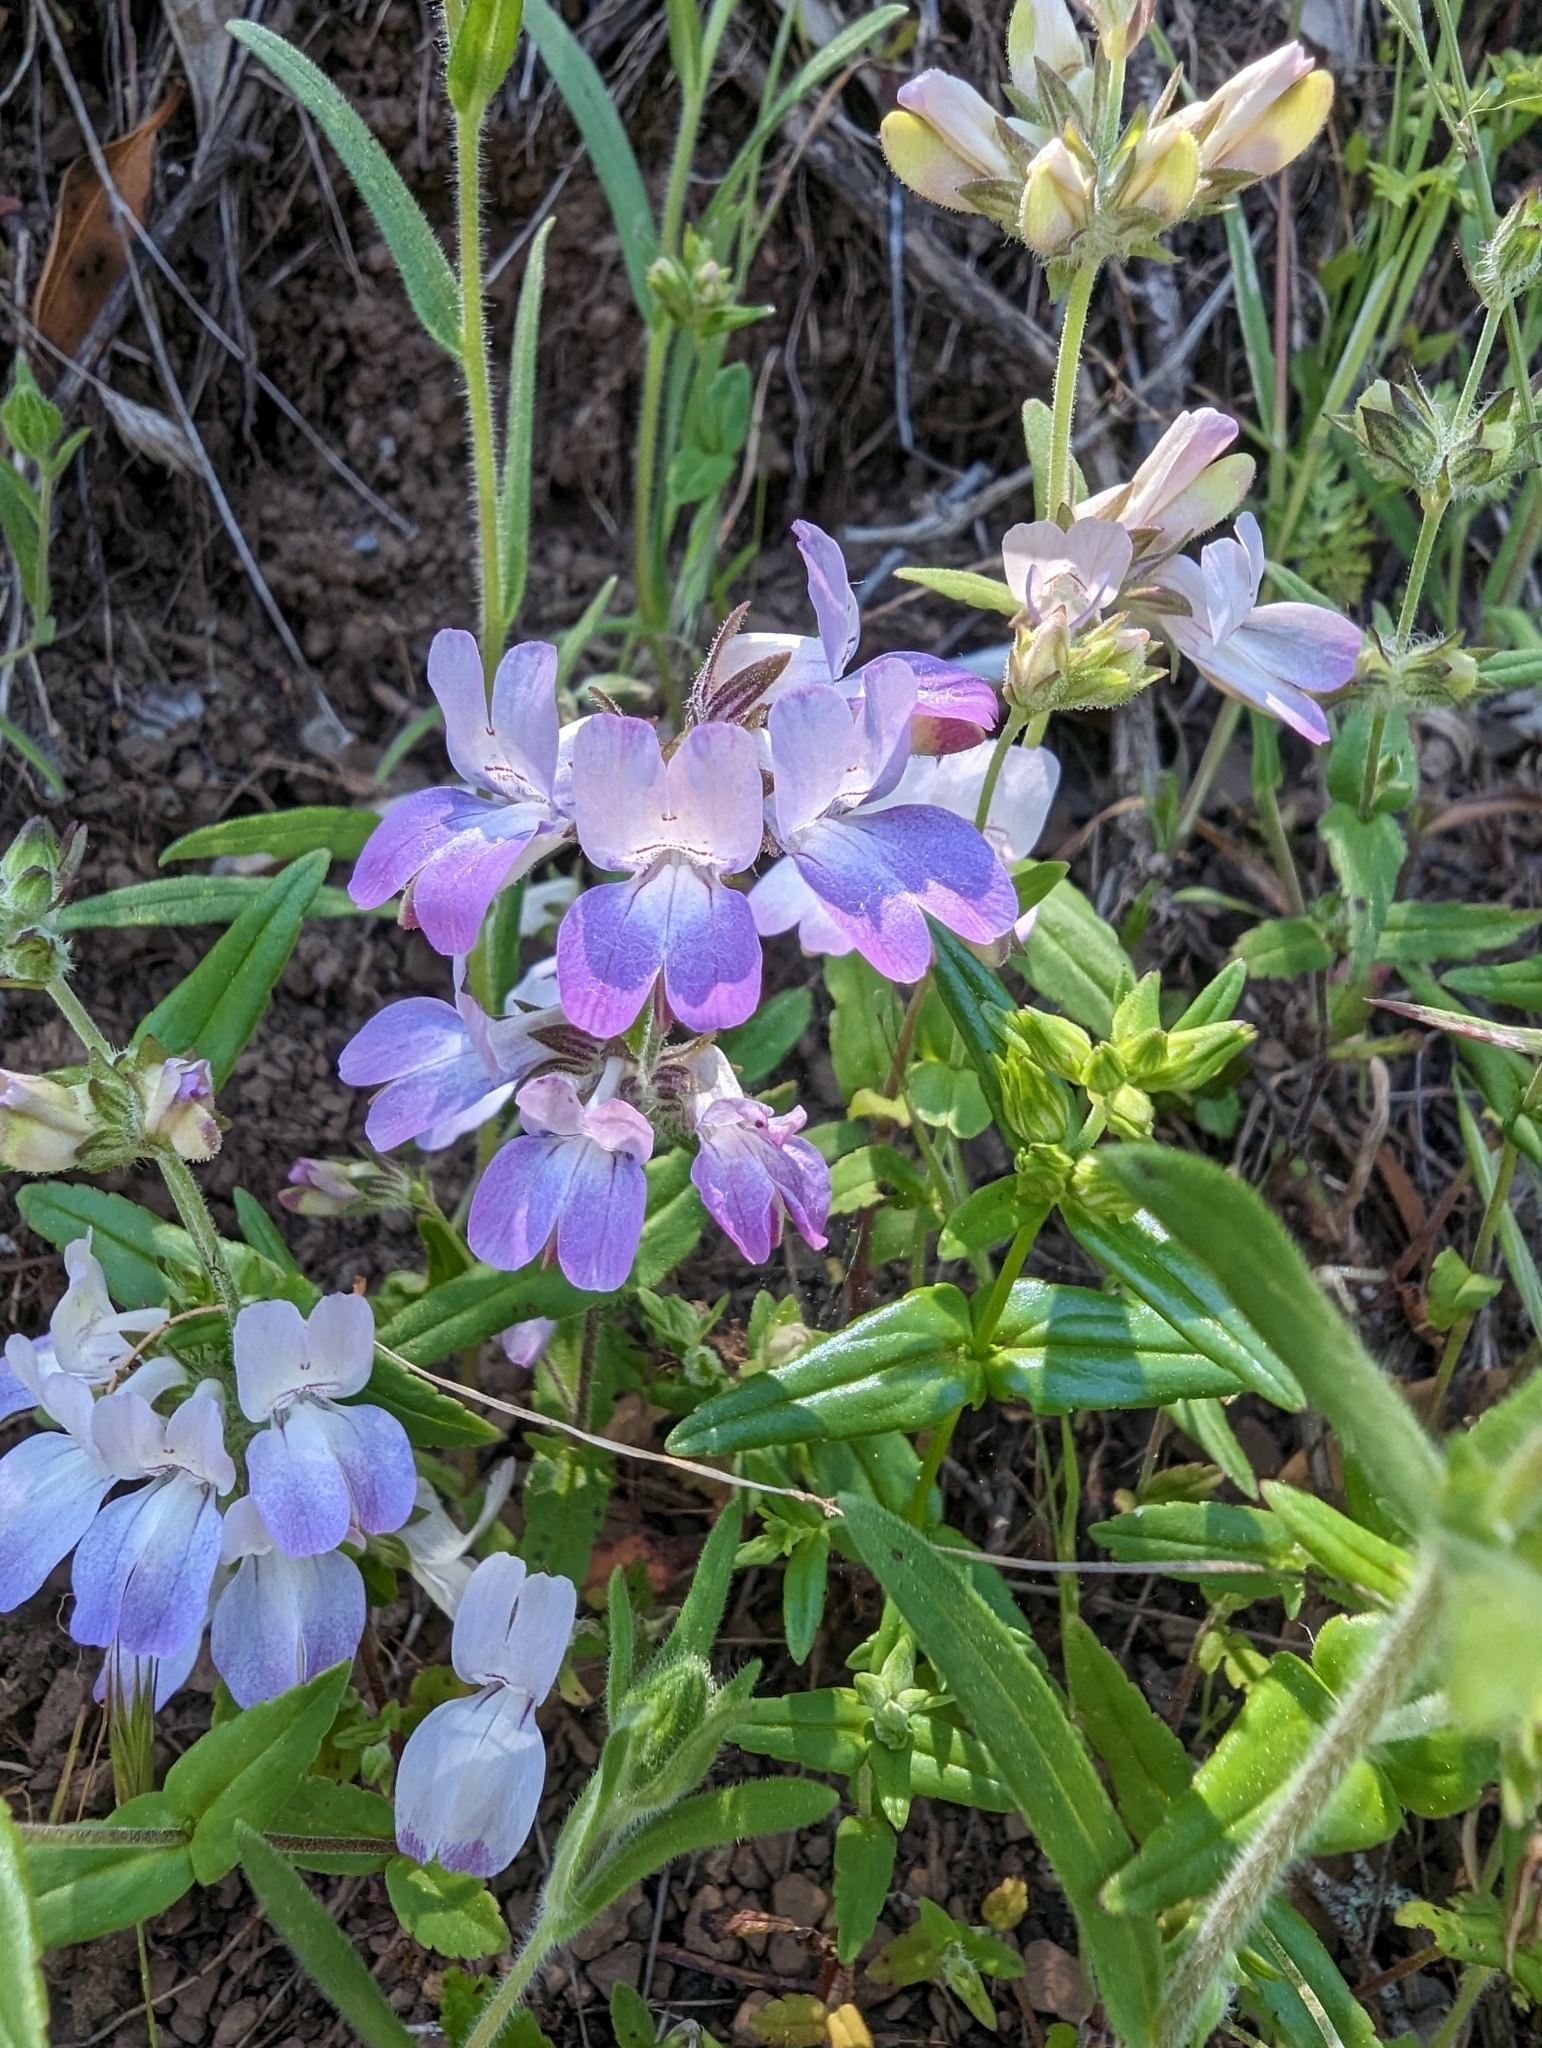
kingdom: Plantae
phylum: Tracheophyta
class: Magnoliopsida
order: Lamiales
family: Plantaginaceae
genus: Collinsia
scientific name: Collinsia heterophylla
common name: Chinese-houses
